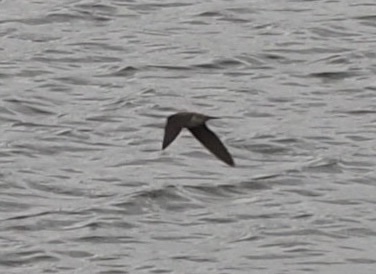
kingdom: Animalia
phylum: Chordata
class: Aves
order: Passeriformes
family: Hirundinidae
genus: Hirundo
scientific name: Hirundo rustica
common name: Barn swallow
